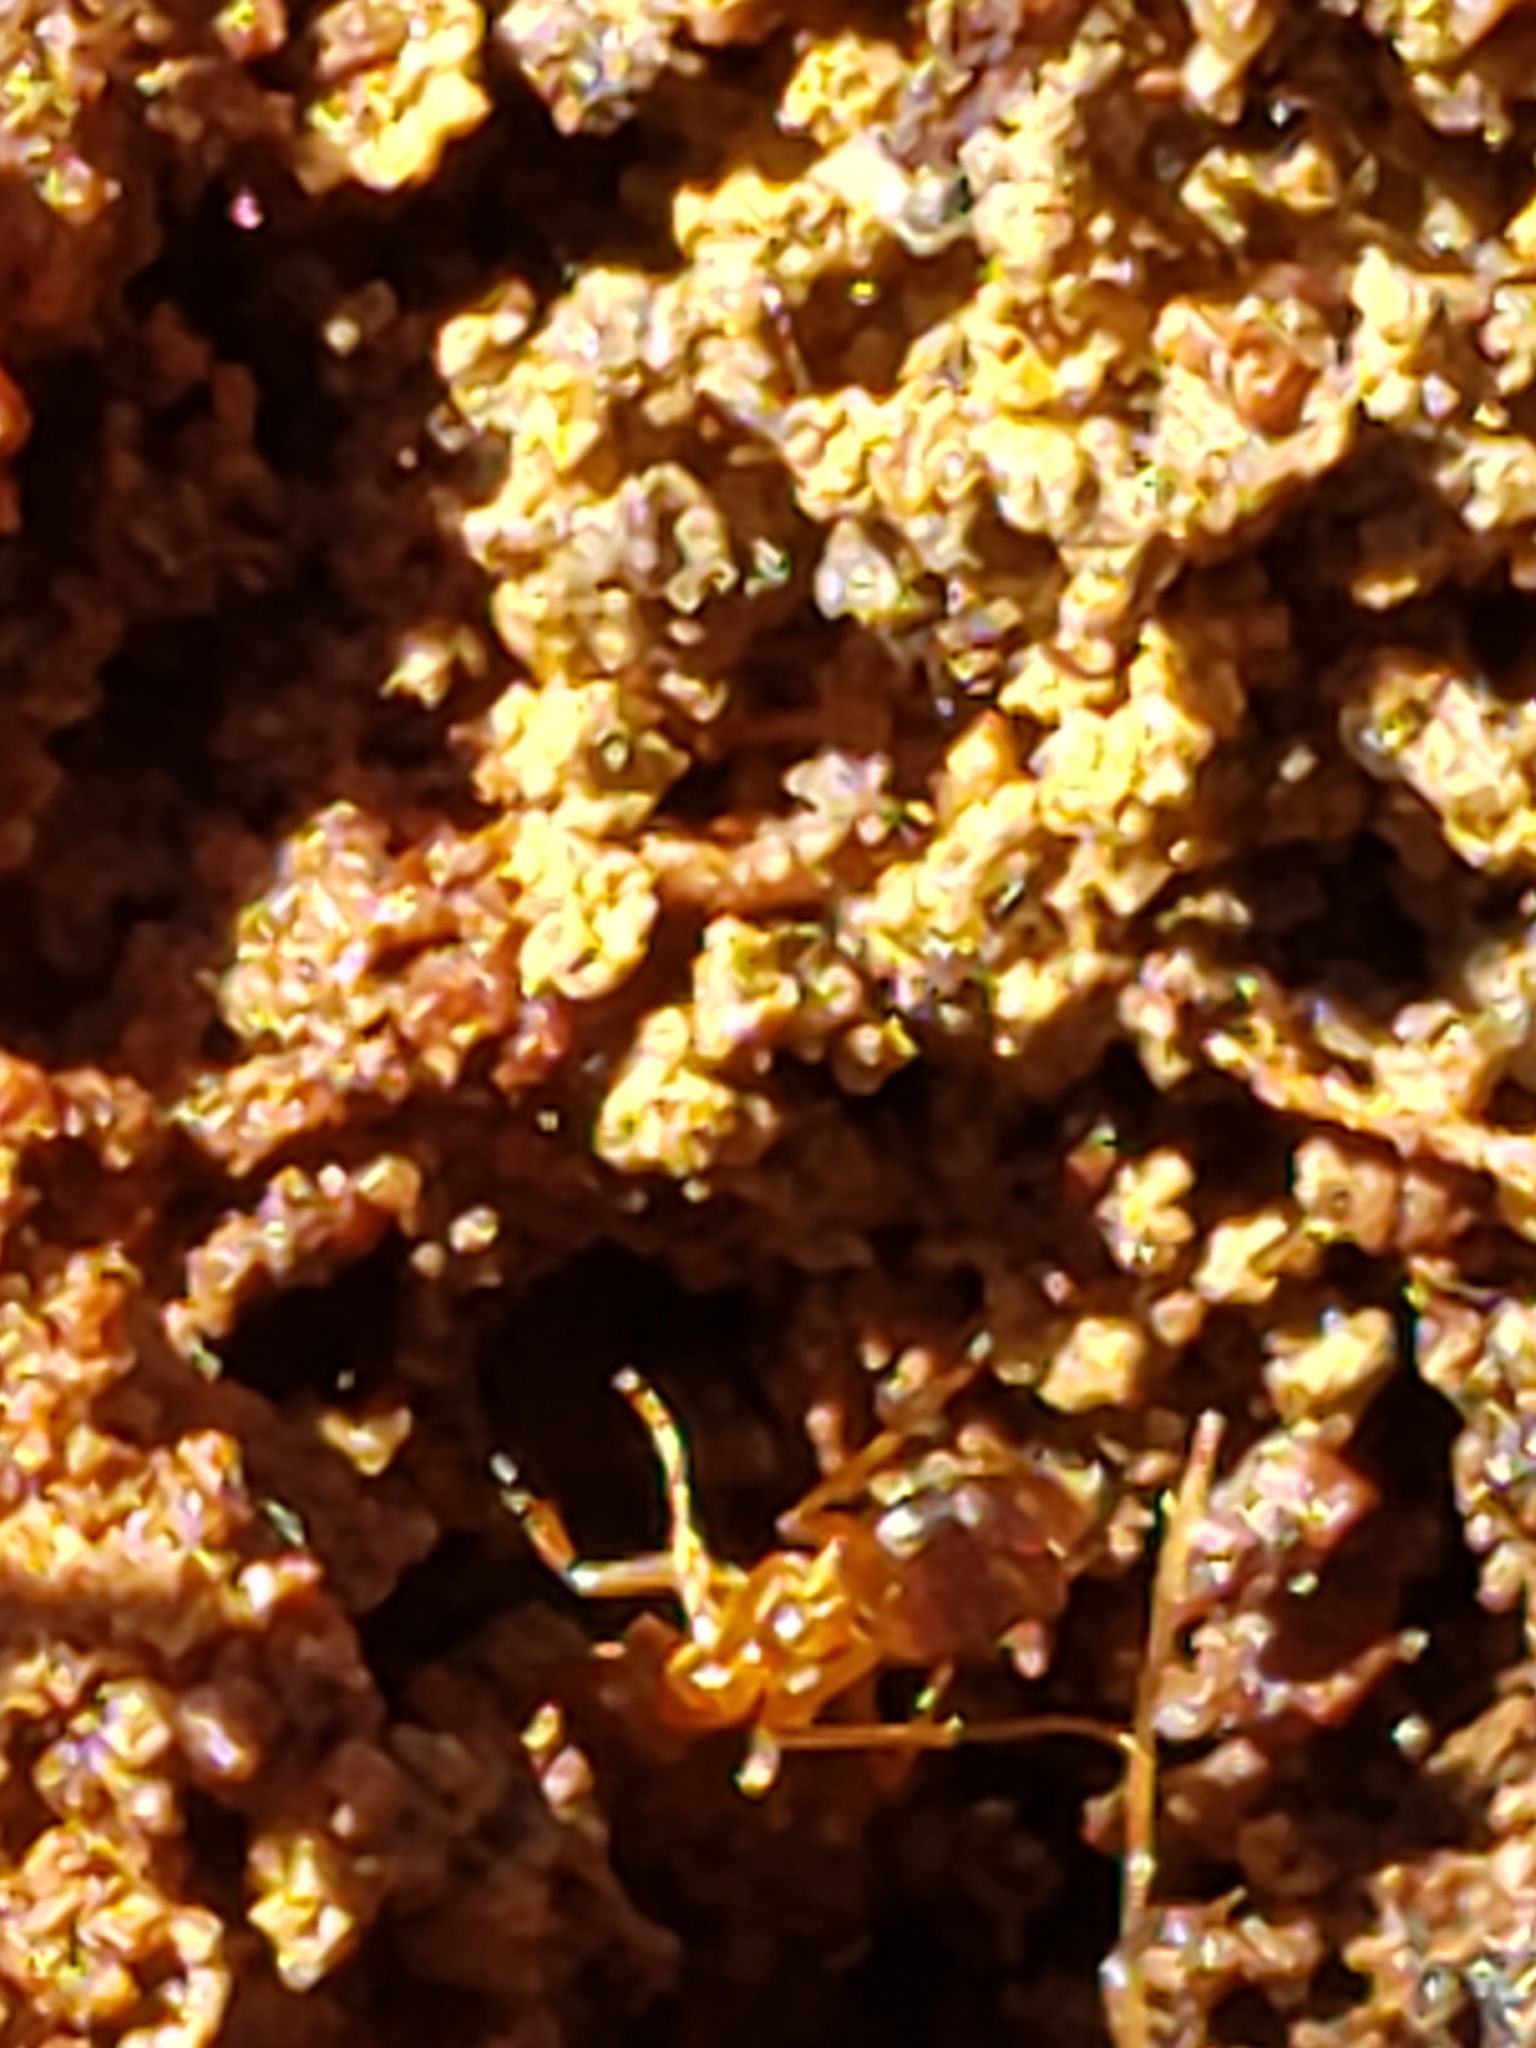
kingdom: Animalia
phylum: Arthropoda
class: Insecta
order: Hymenoptera
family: Formicidae
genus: Prenolepis
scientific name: Prenolepis imparis
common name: Small honey ant
